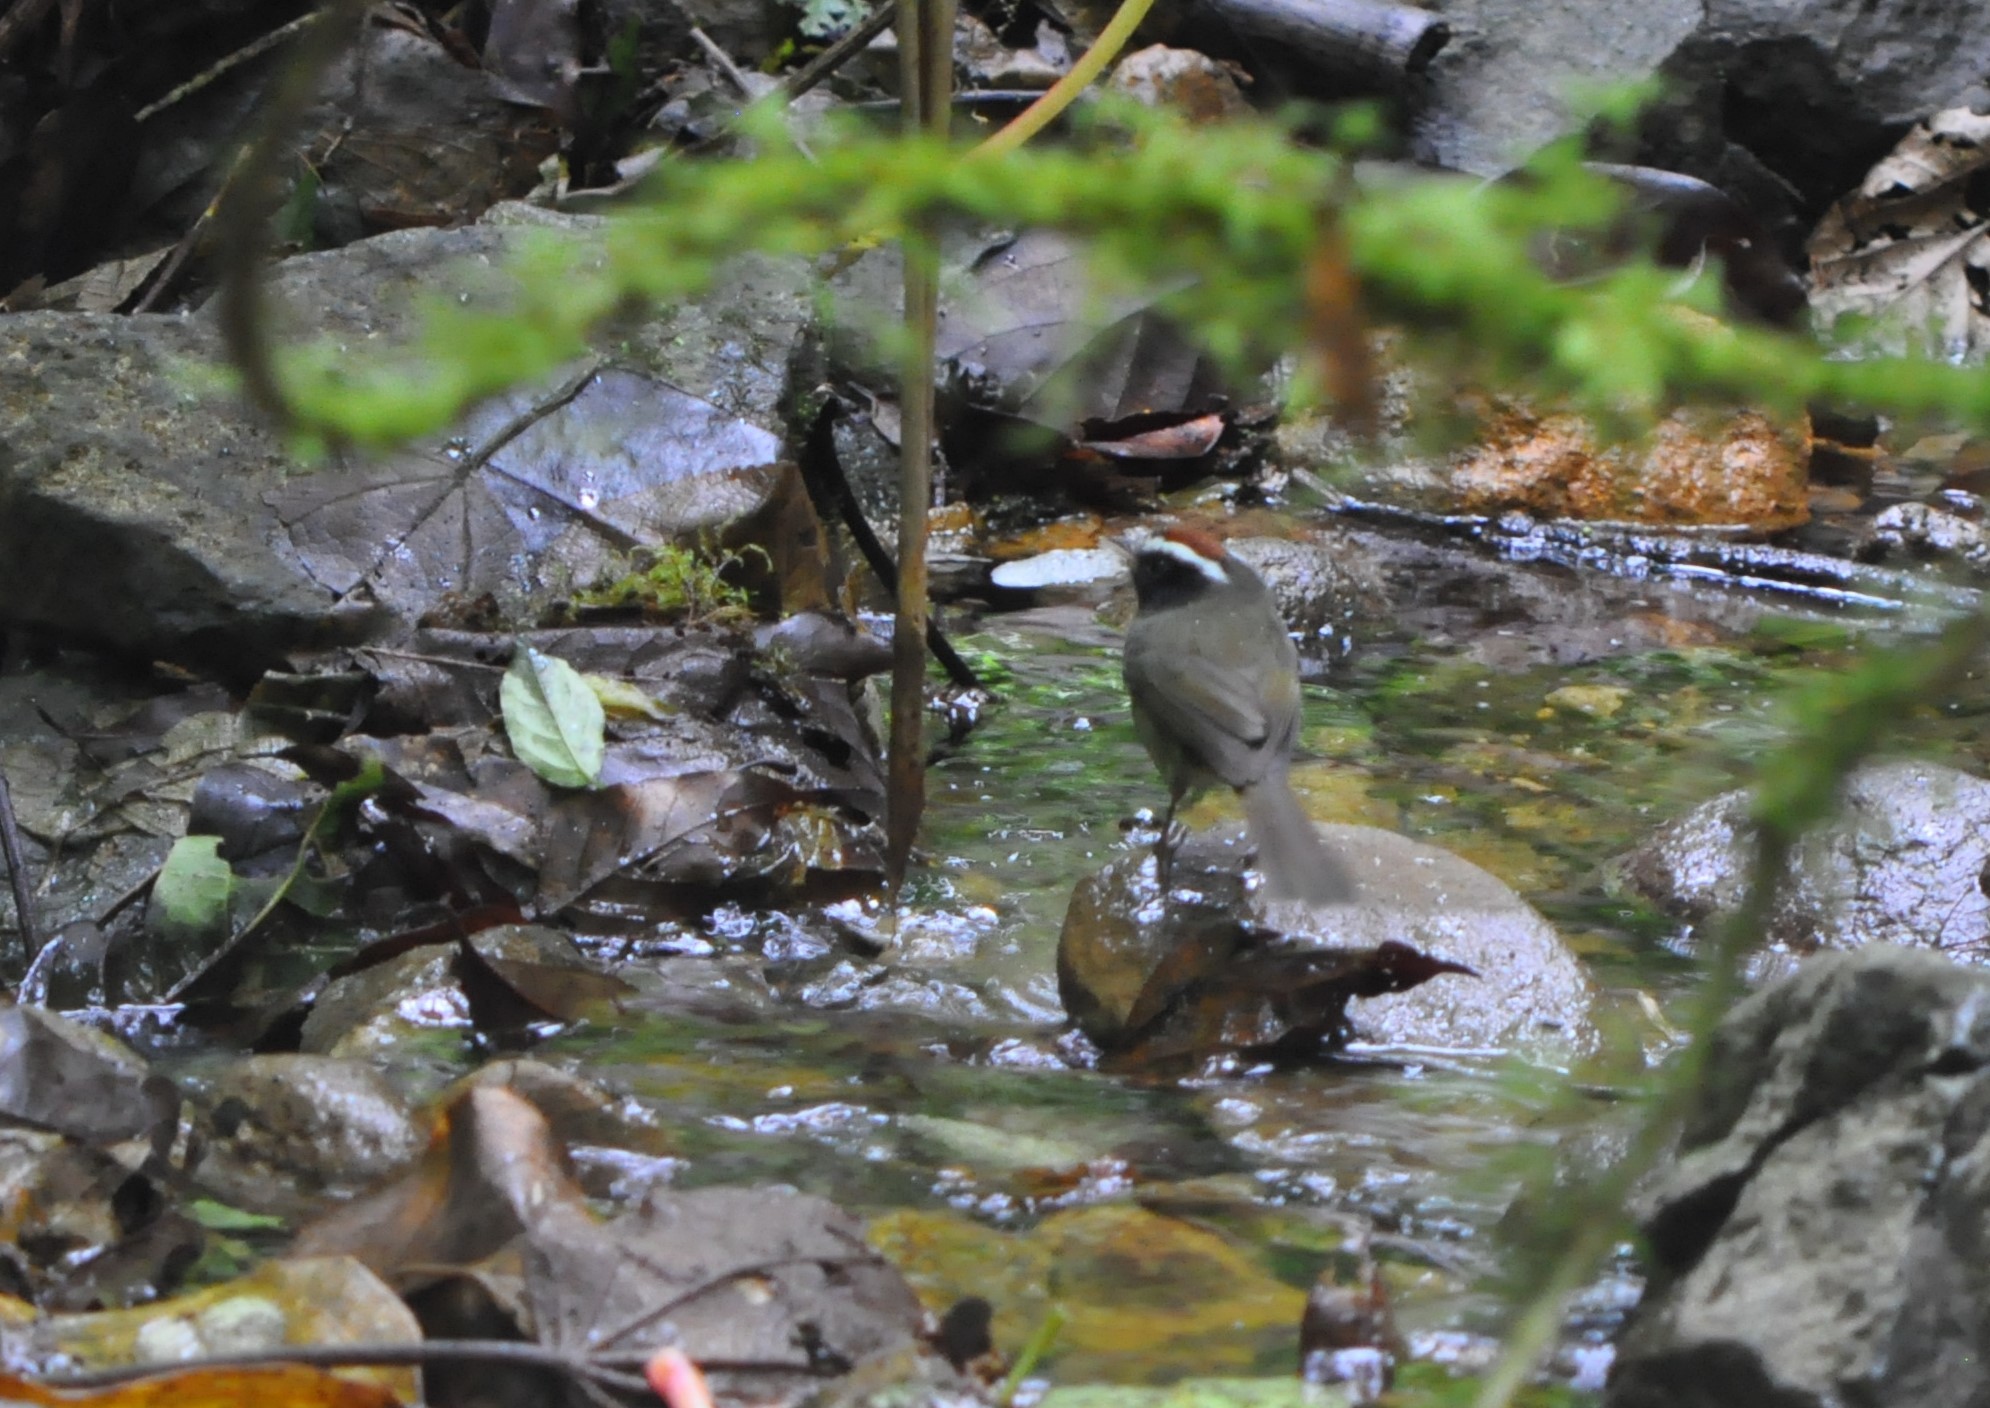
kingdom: Animalia
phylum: Chordata
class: Aves
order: Passeriformes
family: Parulidae
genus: Basileuterus
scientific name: Basileuterus melanogenys
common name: Black-cheeked warbler
